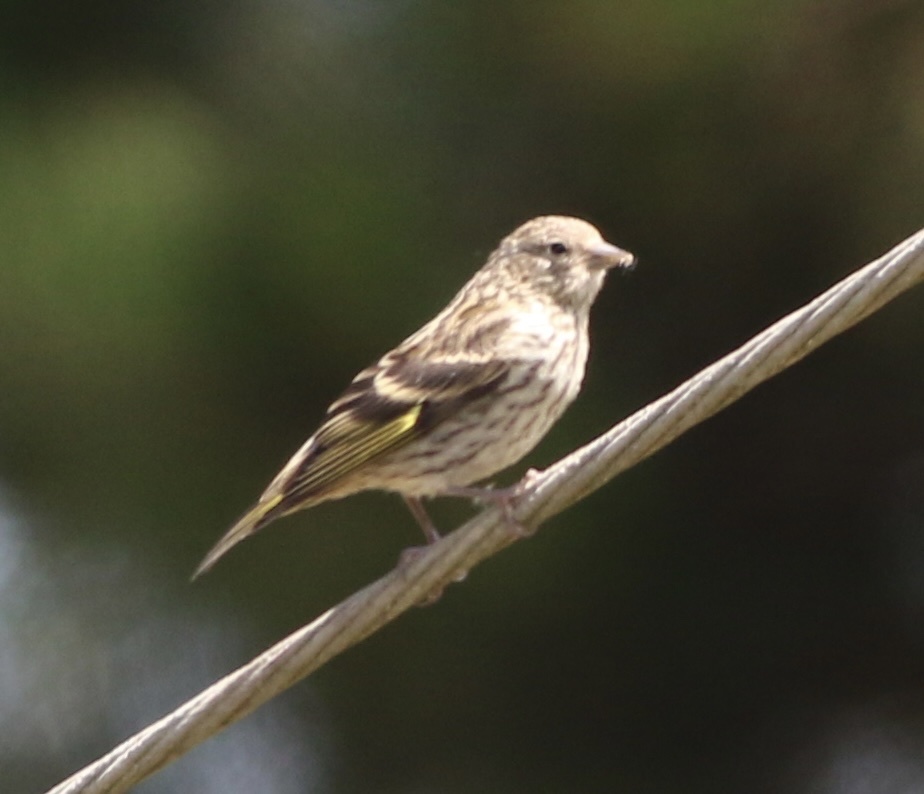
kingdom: Animalia
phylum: Chordata
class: Aves
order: Passeriformes
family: Fringillidae
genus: Spinus
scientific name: Spinus pinus
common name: Pine siskin
